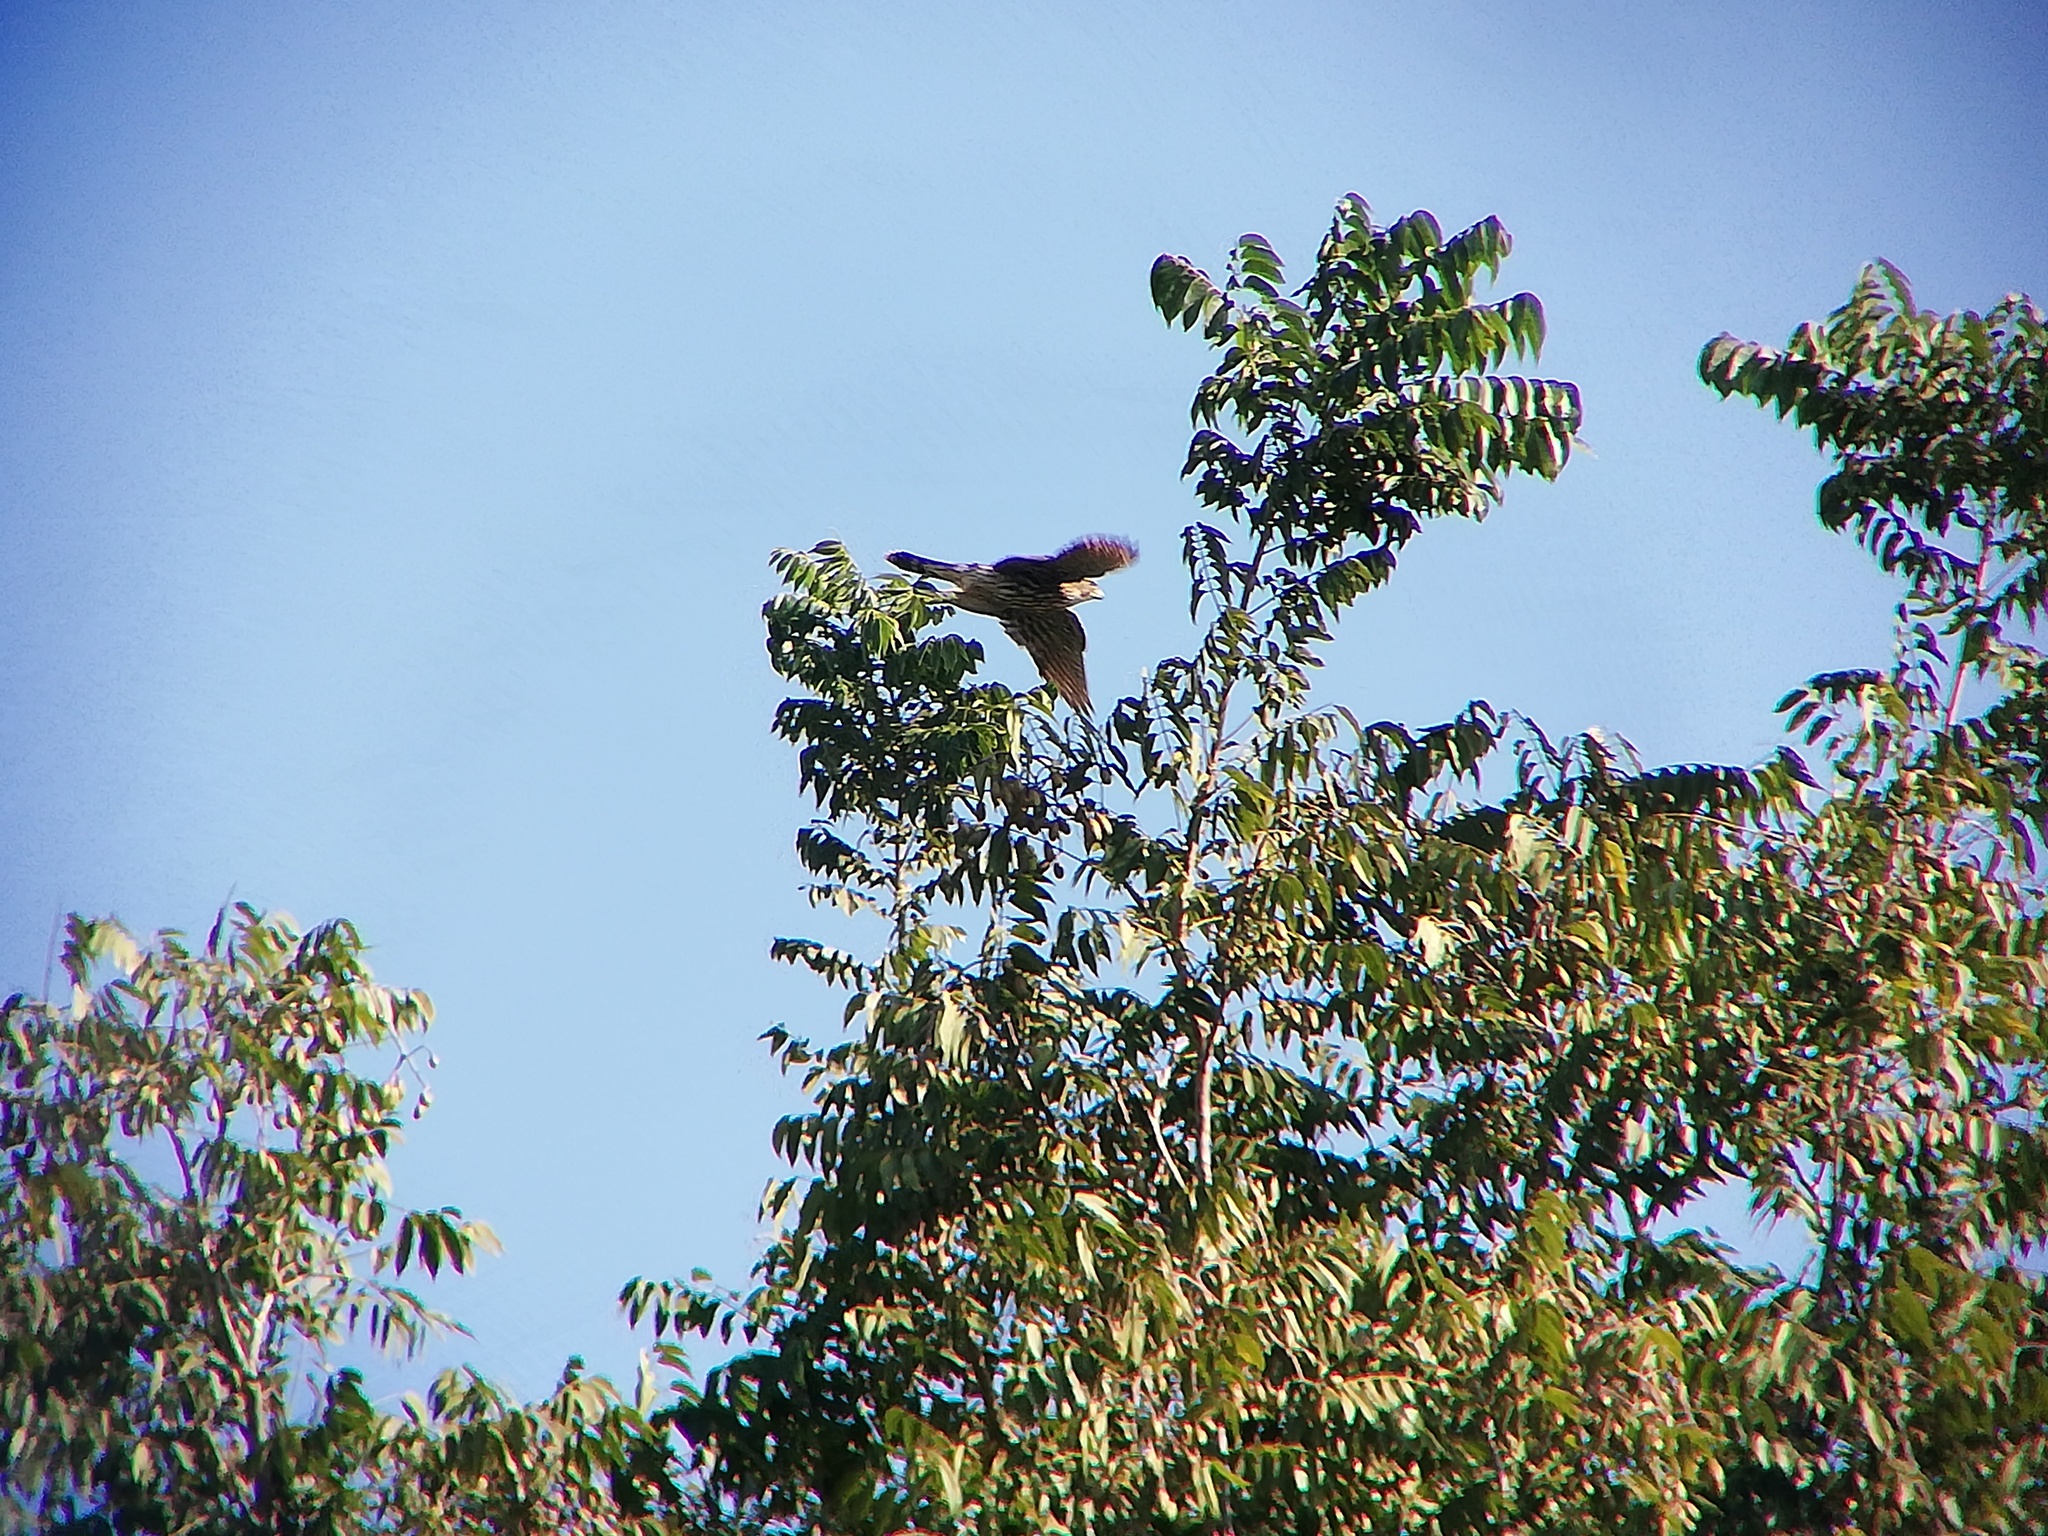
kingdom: Animalia
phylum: Chordata
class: Aves
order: Accipitriformes
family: Accipitridae
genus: Buteo
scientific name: Buteo nitidus
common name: Grey-lined hawk
